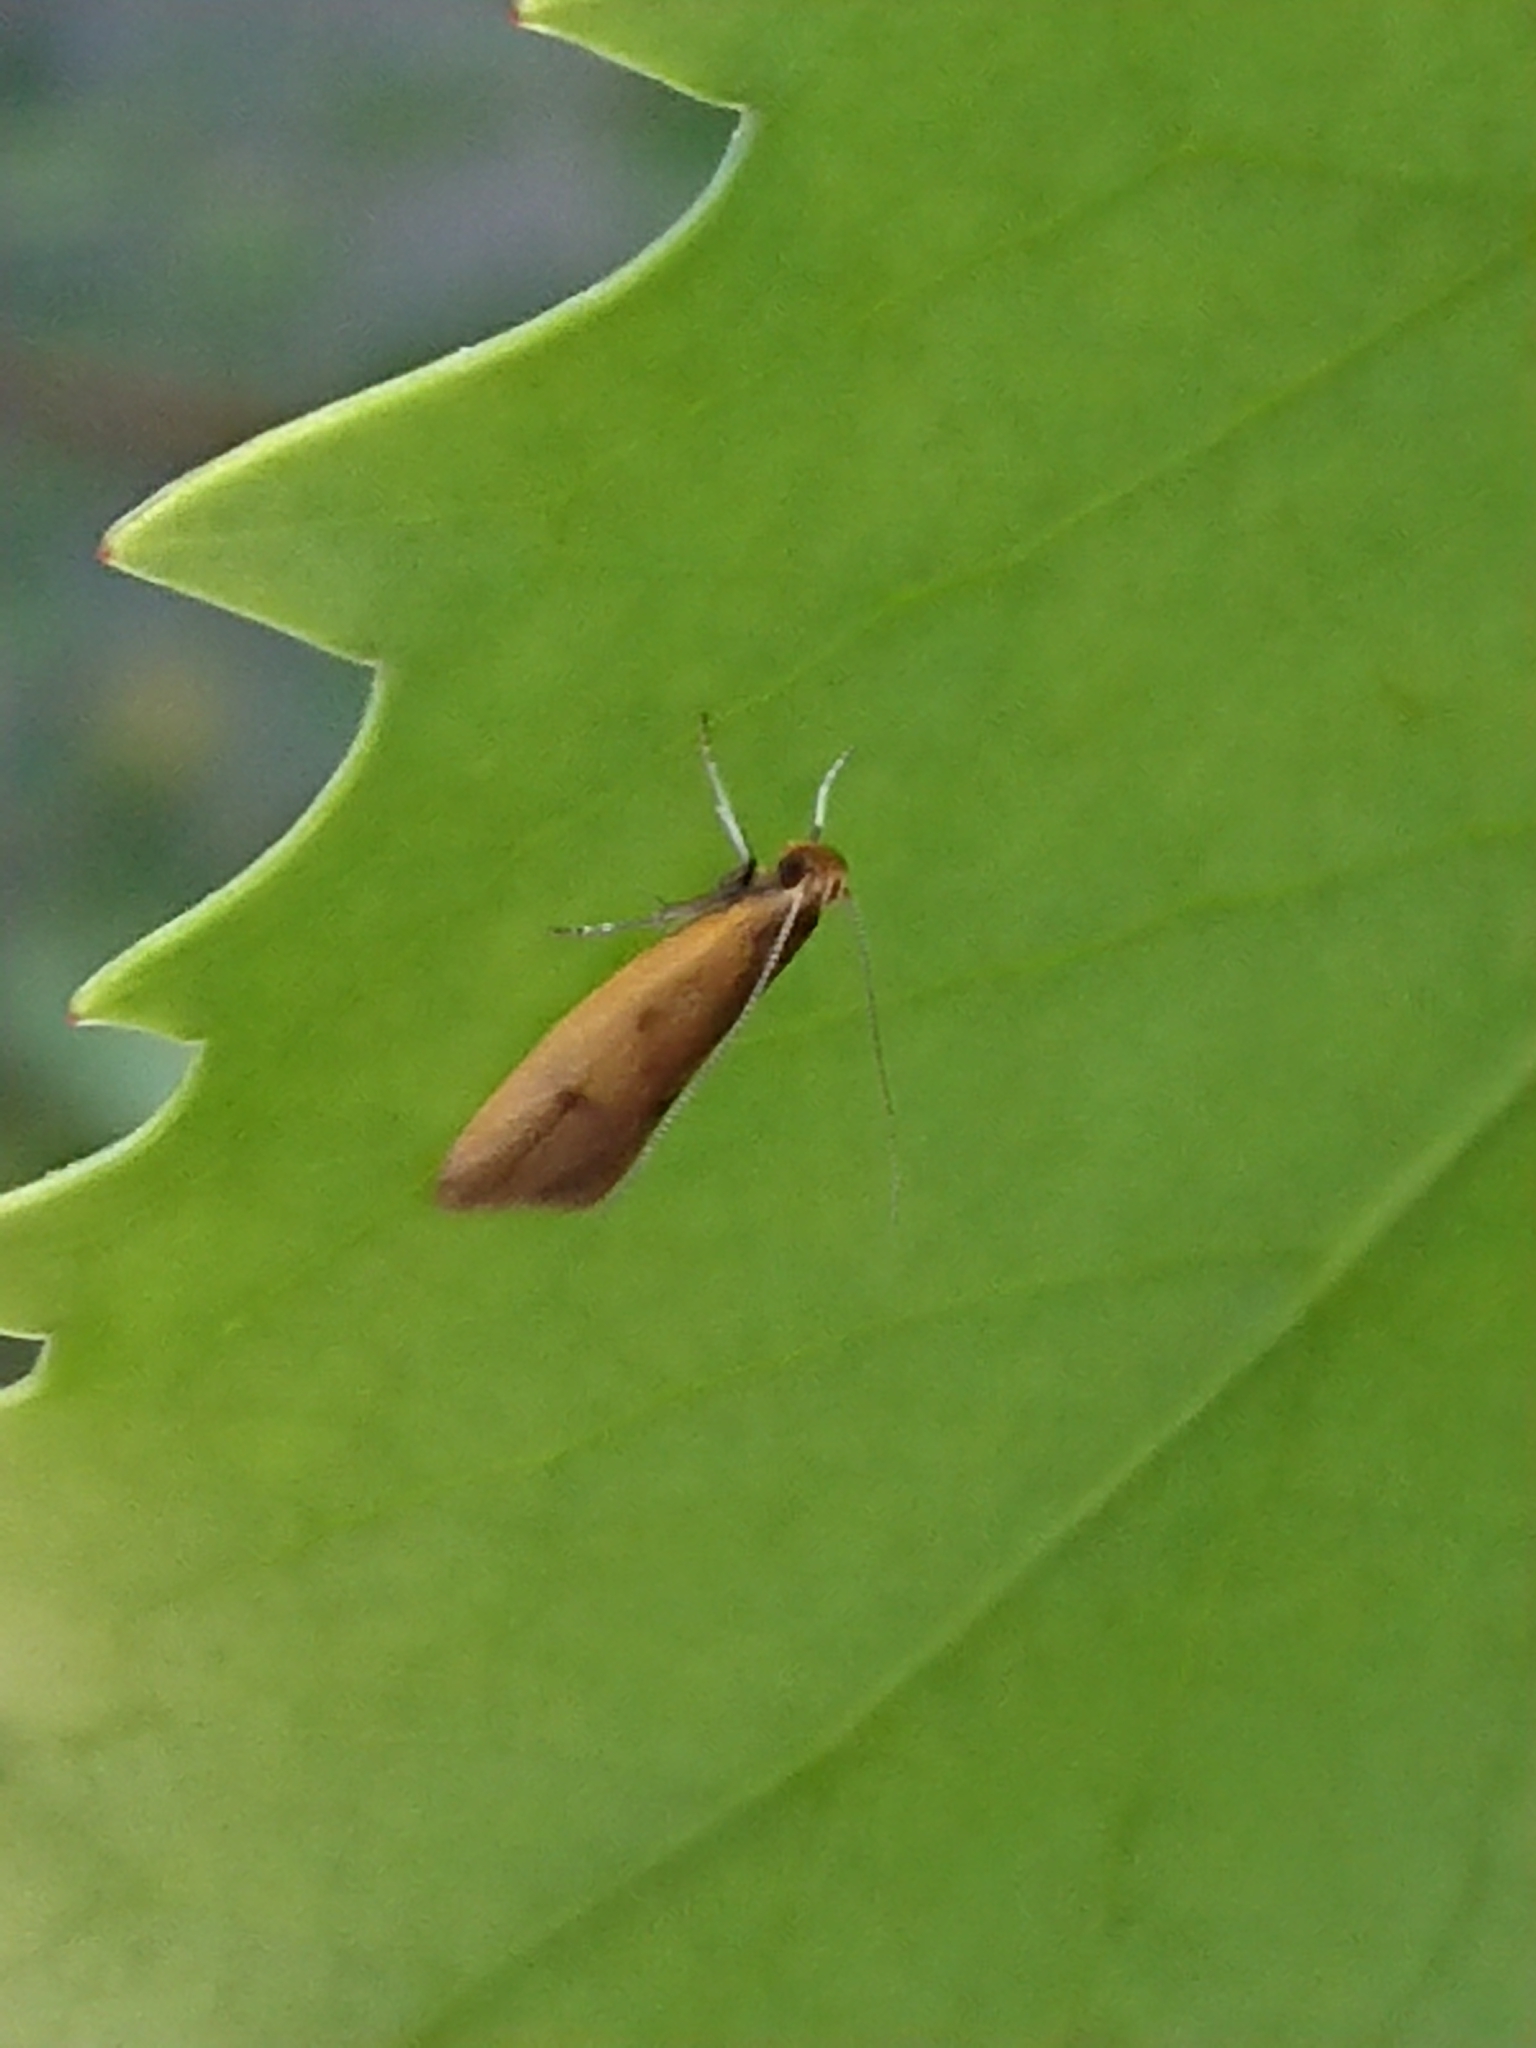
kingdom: Animalia
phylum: Arthropoda
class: Insecta
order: Lepidoptera
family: Oecophoridae
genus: Gymnobathra
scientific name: Gymnobathra sarcoxantha
